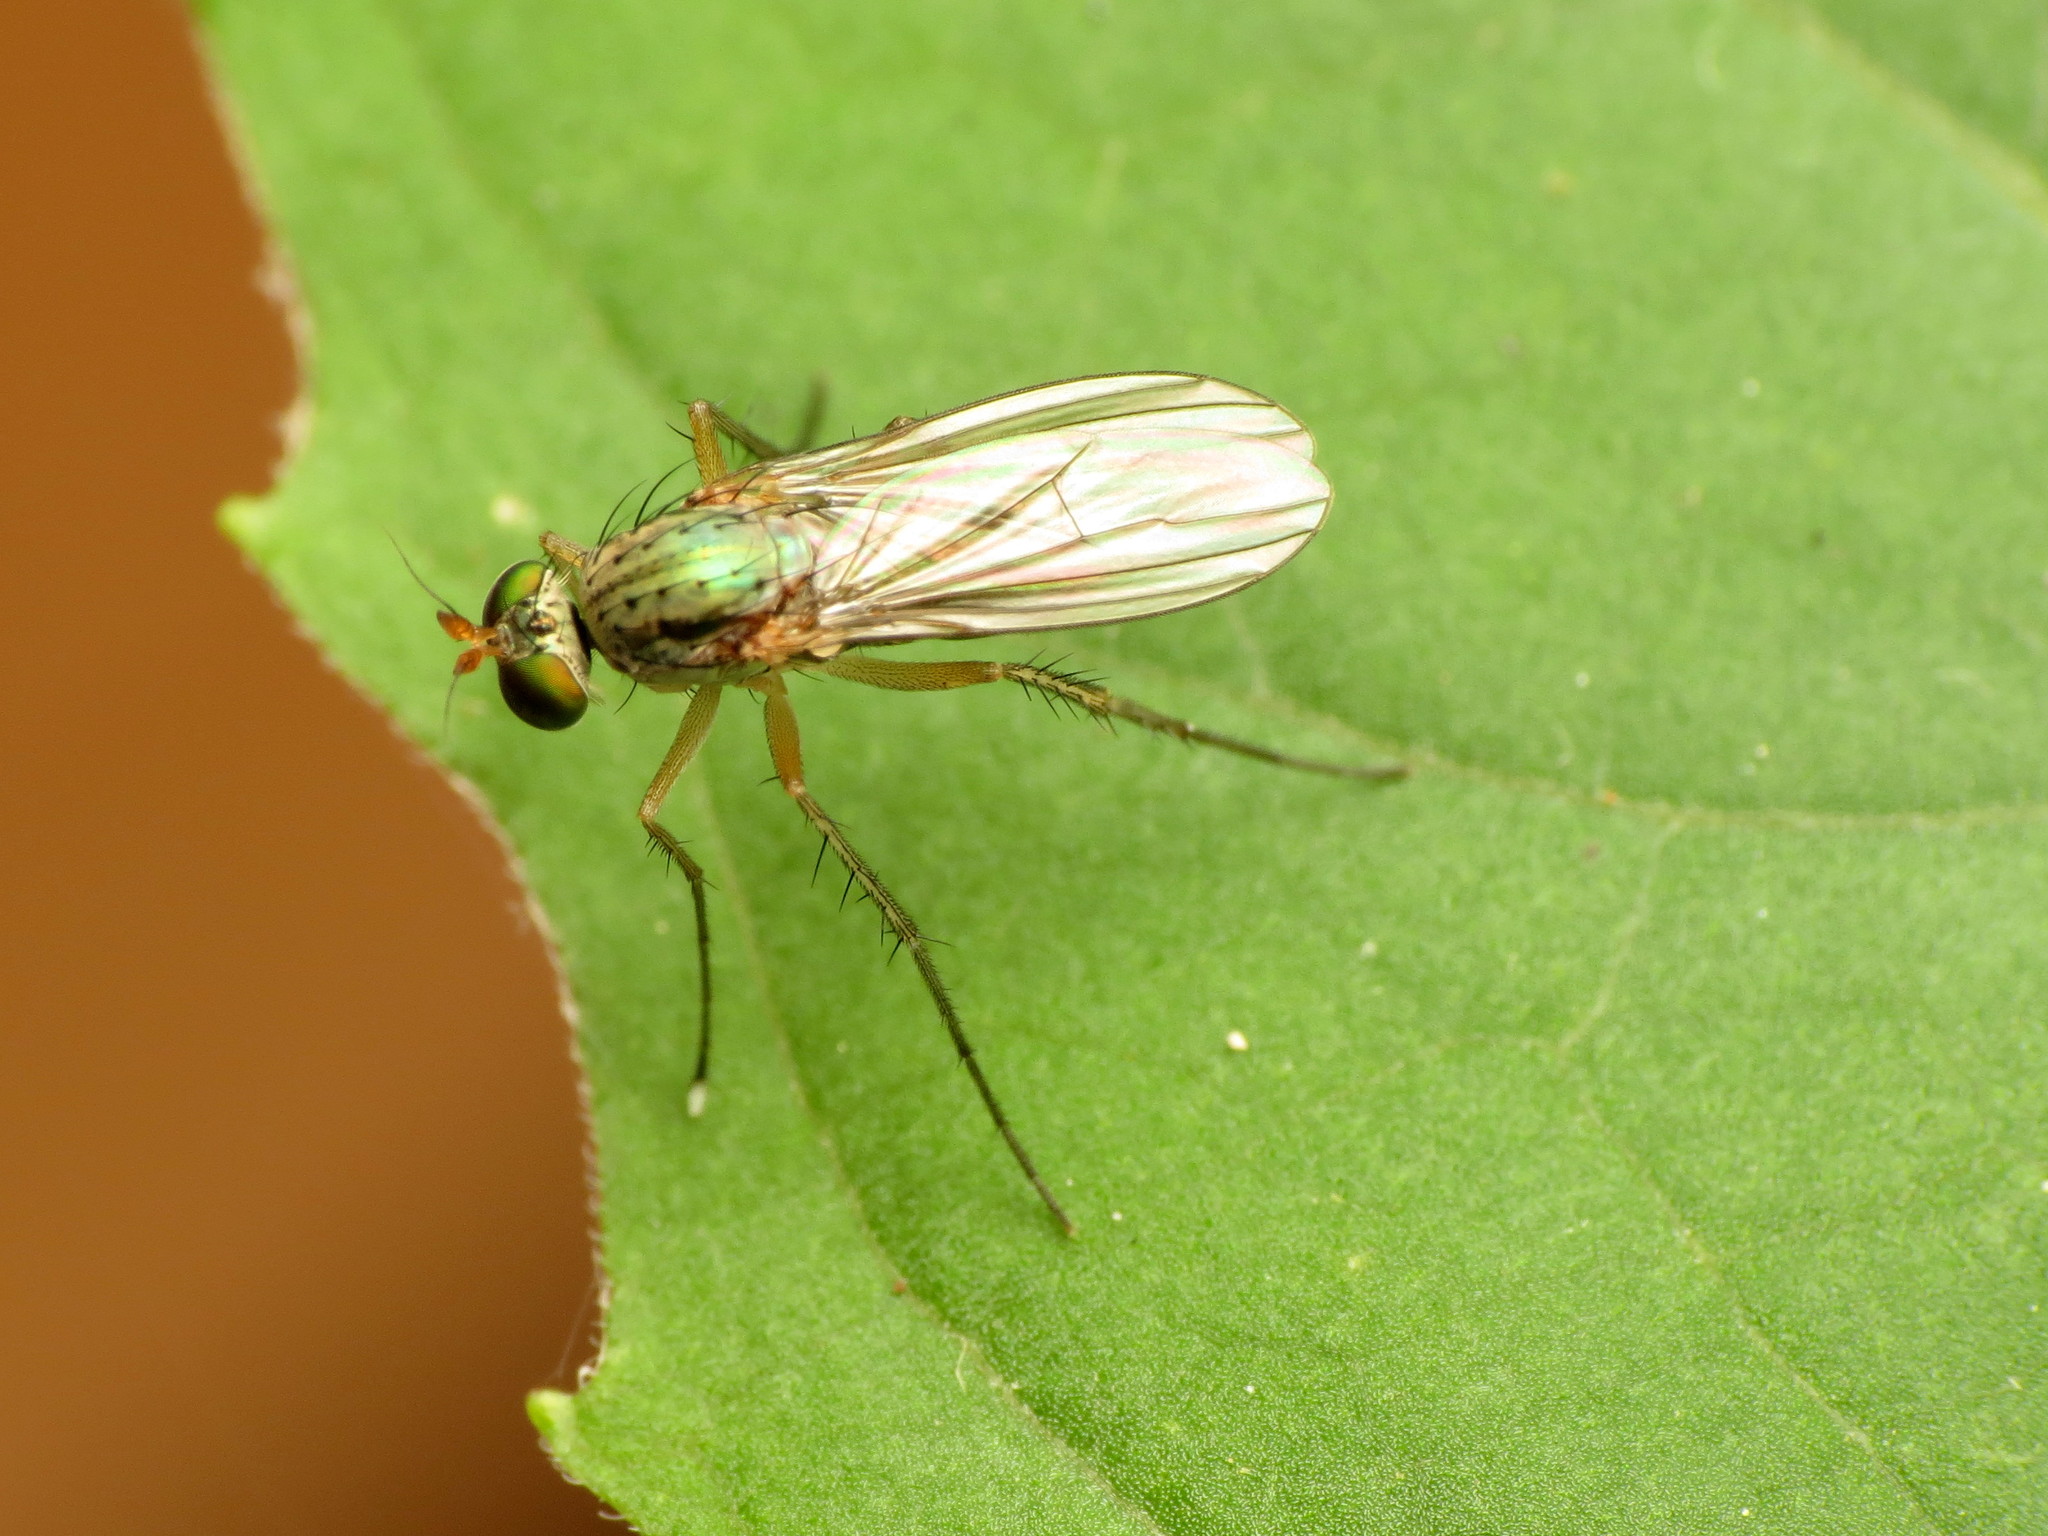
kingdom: Animalia
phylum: Arthropoda
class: Insecta
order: Diptera
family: Dolichopodidae
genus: Dolichopus
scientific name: Dolichopus funditor
